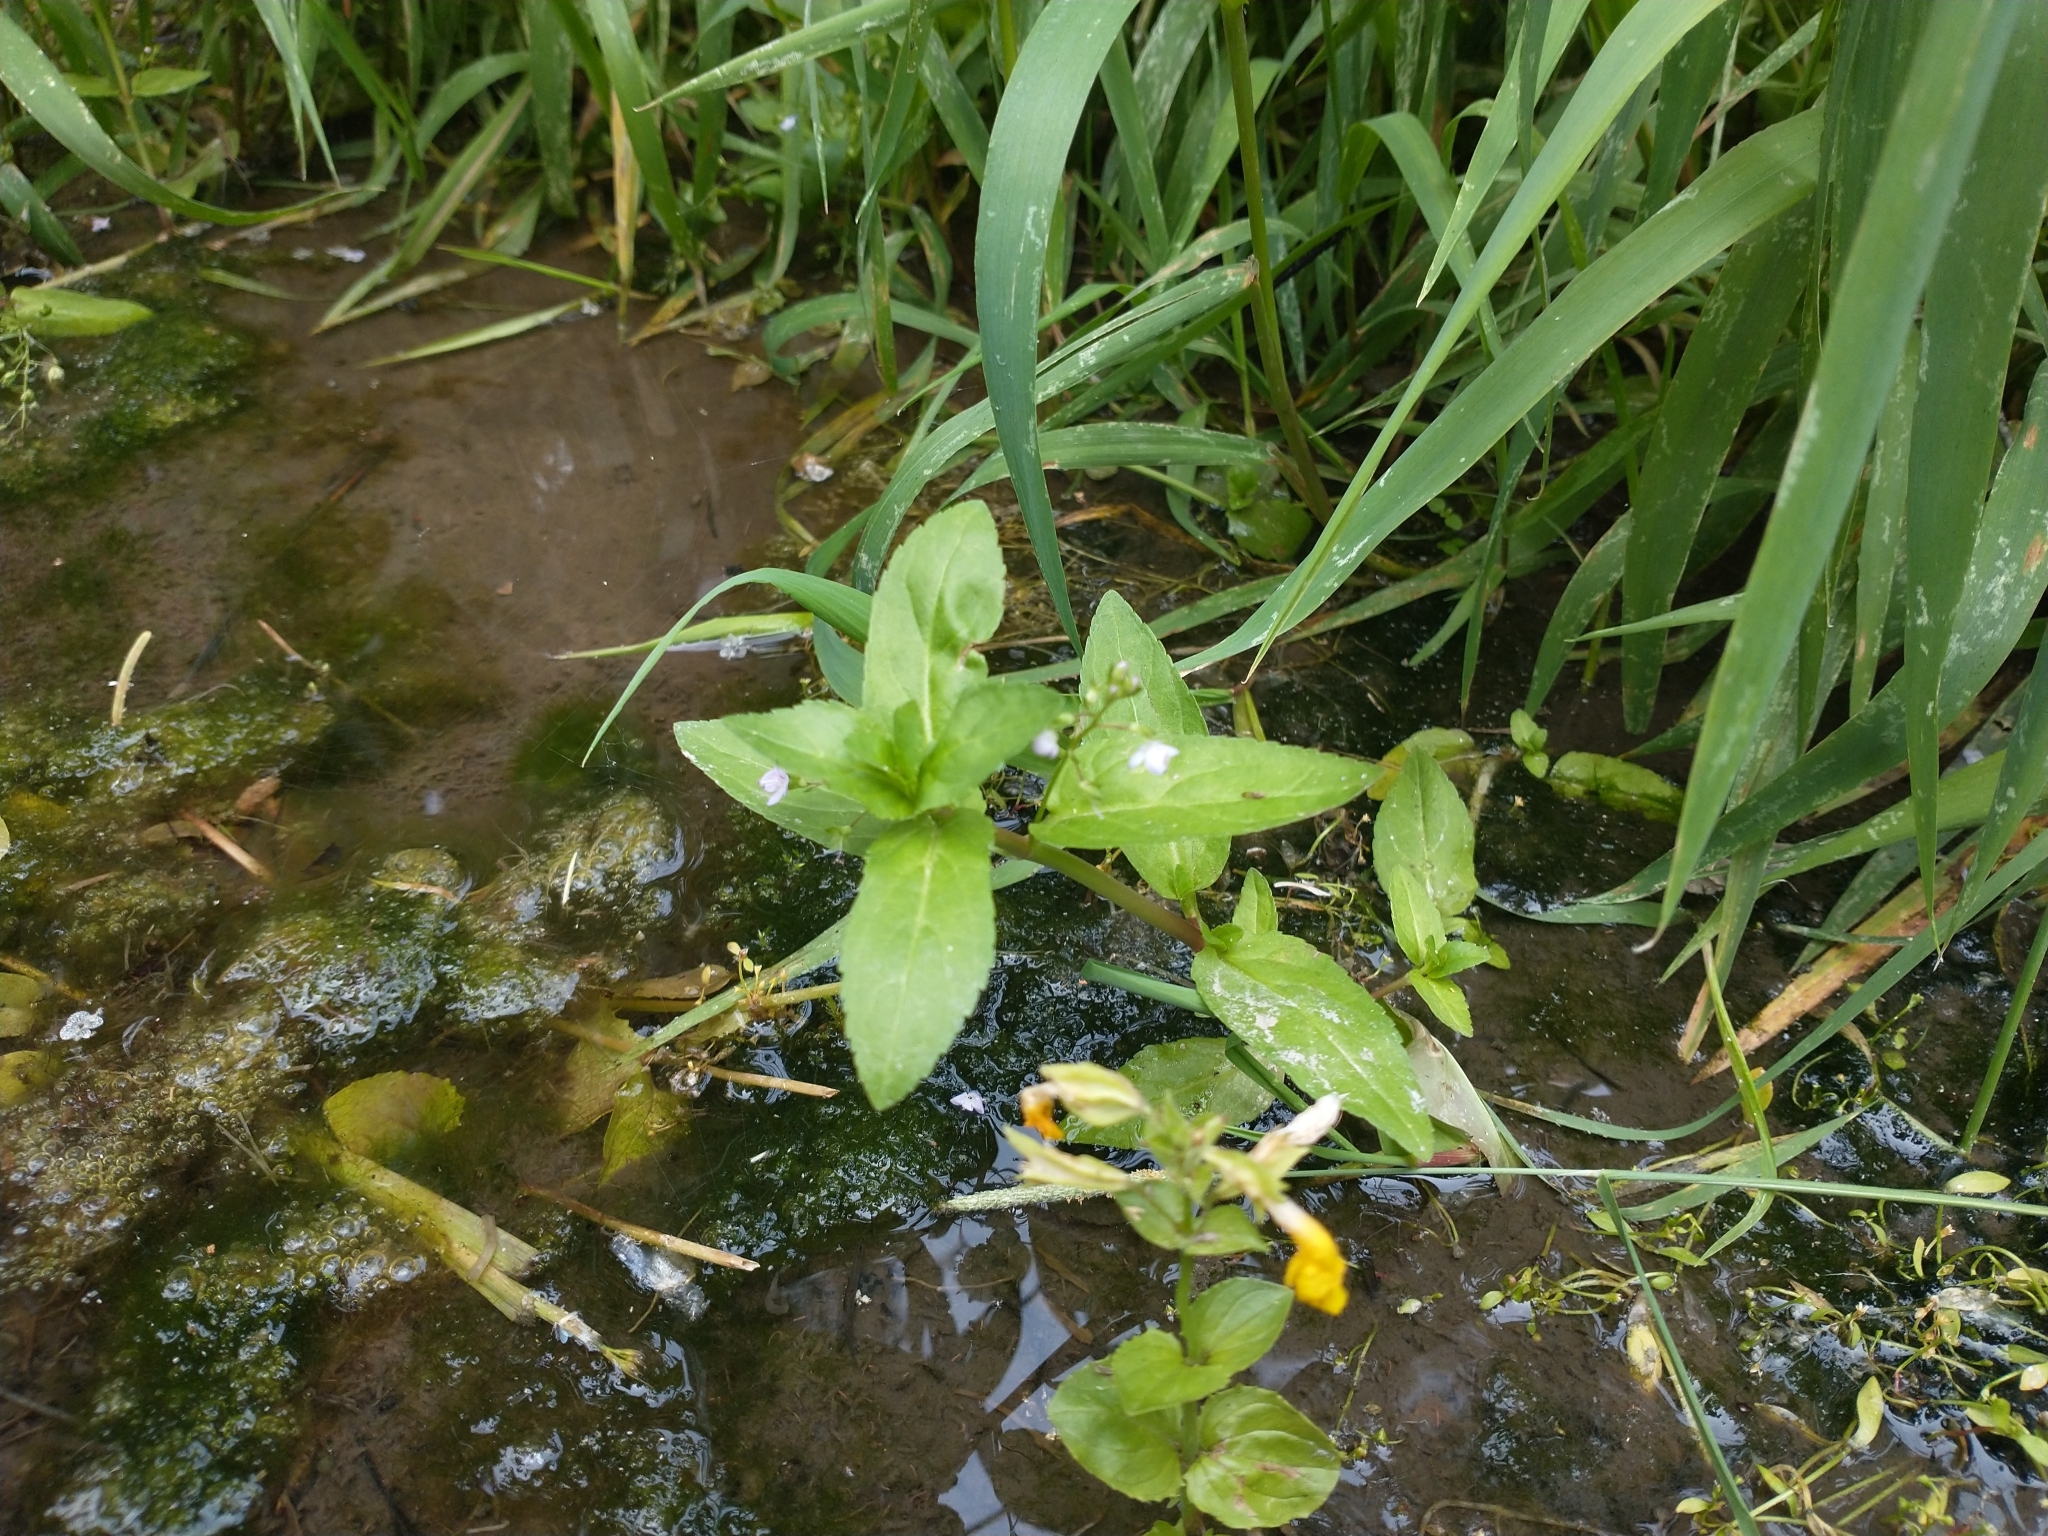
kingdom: Plantae
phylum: Tracheophyta
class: Magnoliopsida
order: Lamiales
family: Plantaginaceae
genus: Veronica
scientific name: Veronica americana
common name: American brooklime
